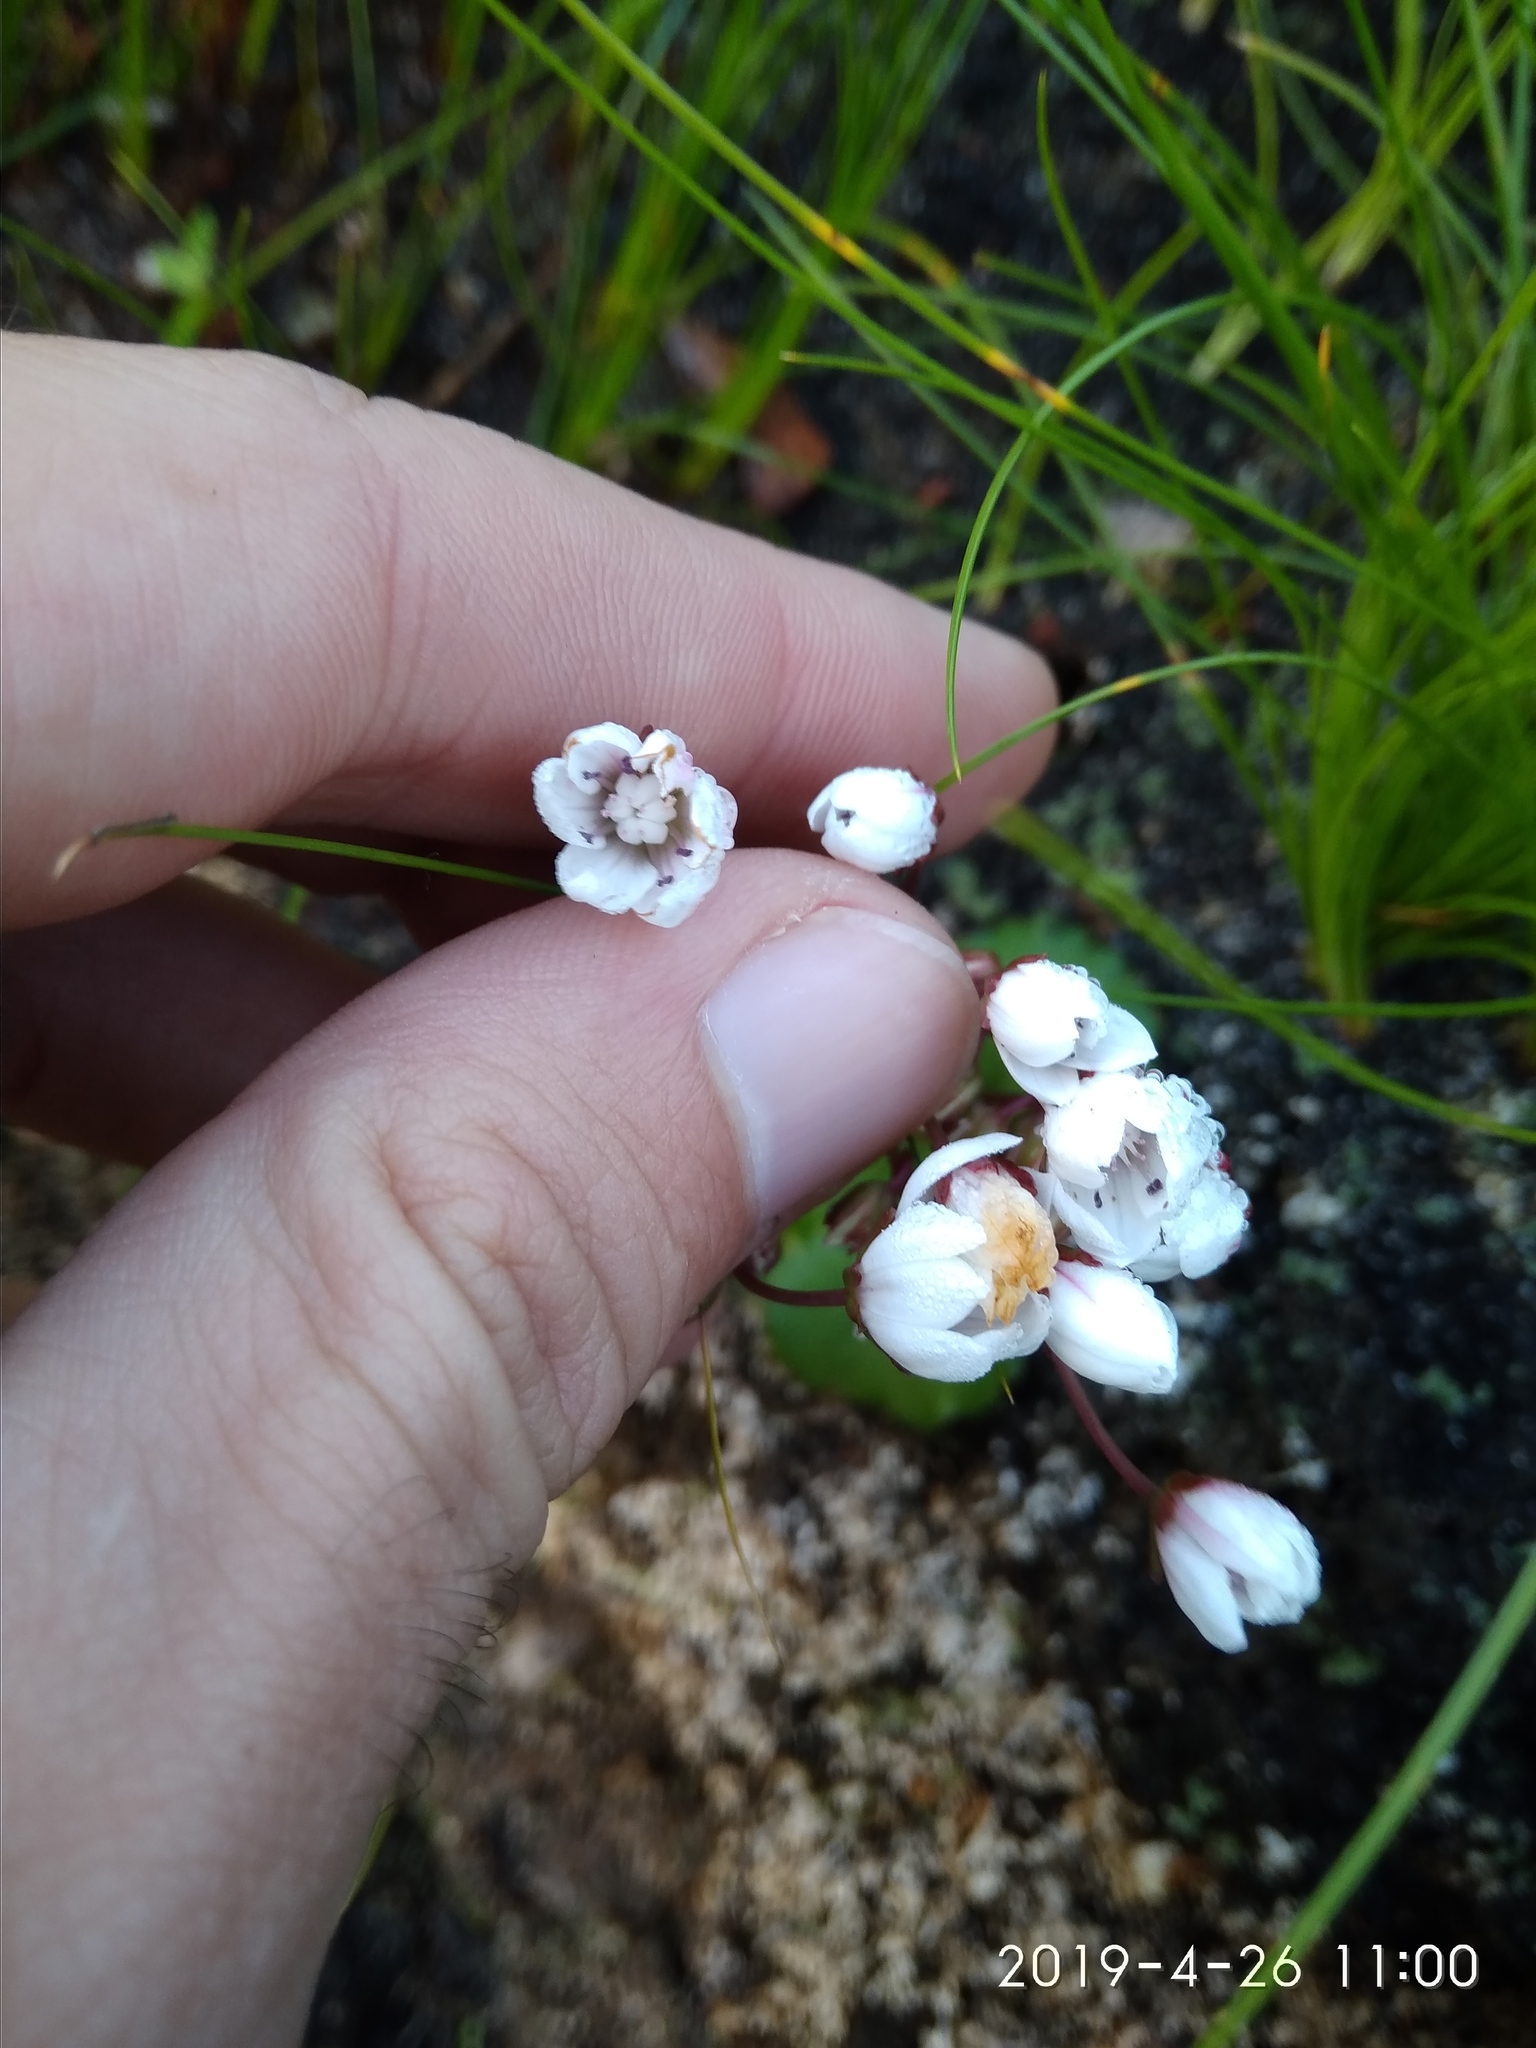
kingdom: Plantae
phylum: Tracheophyta
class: Magnoliopsida
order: Saxifragales
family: Crassulaceae
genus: Crassula
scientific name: Crassula capensis
